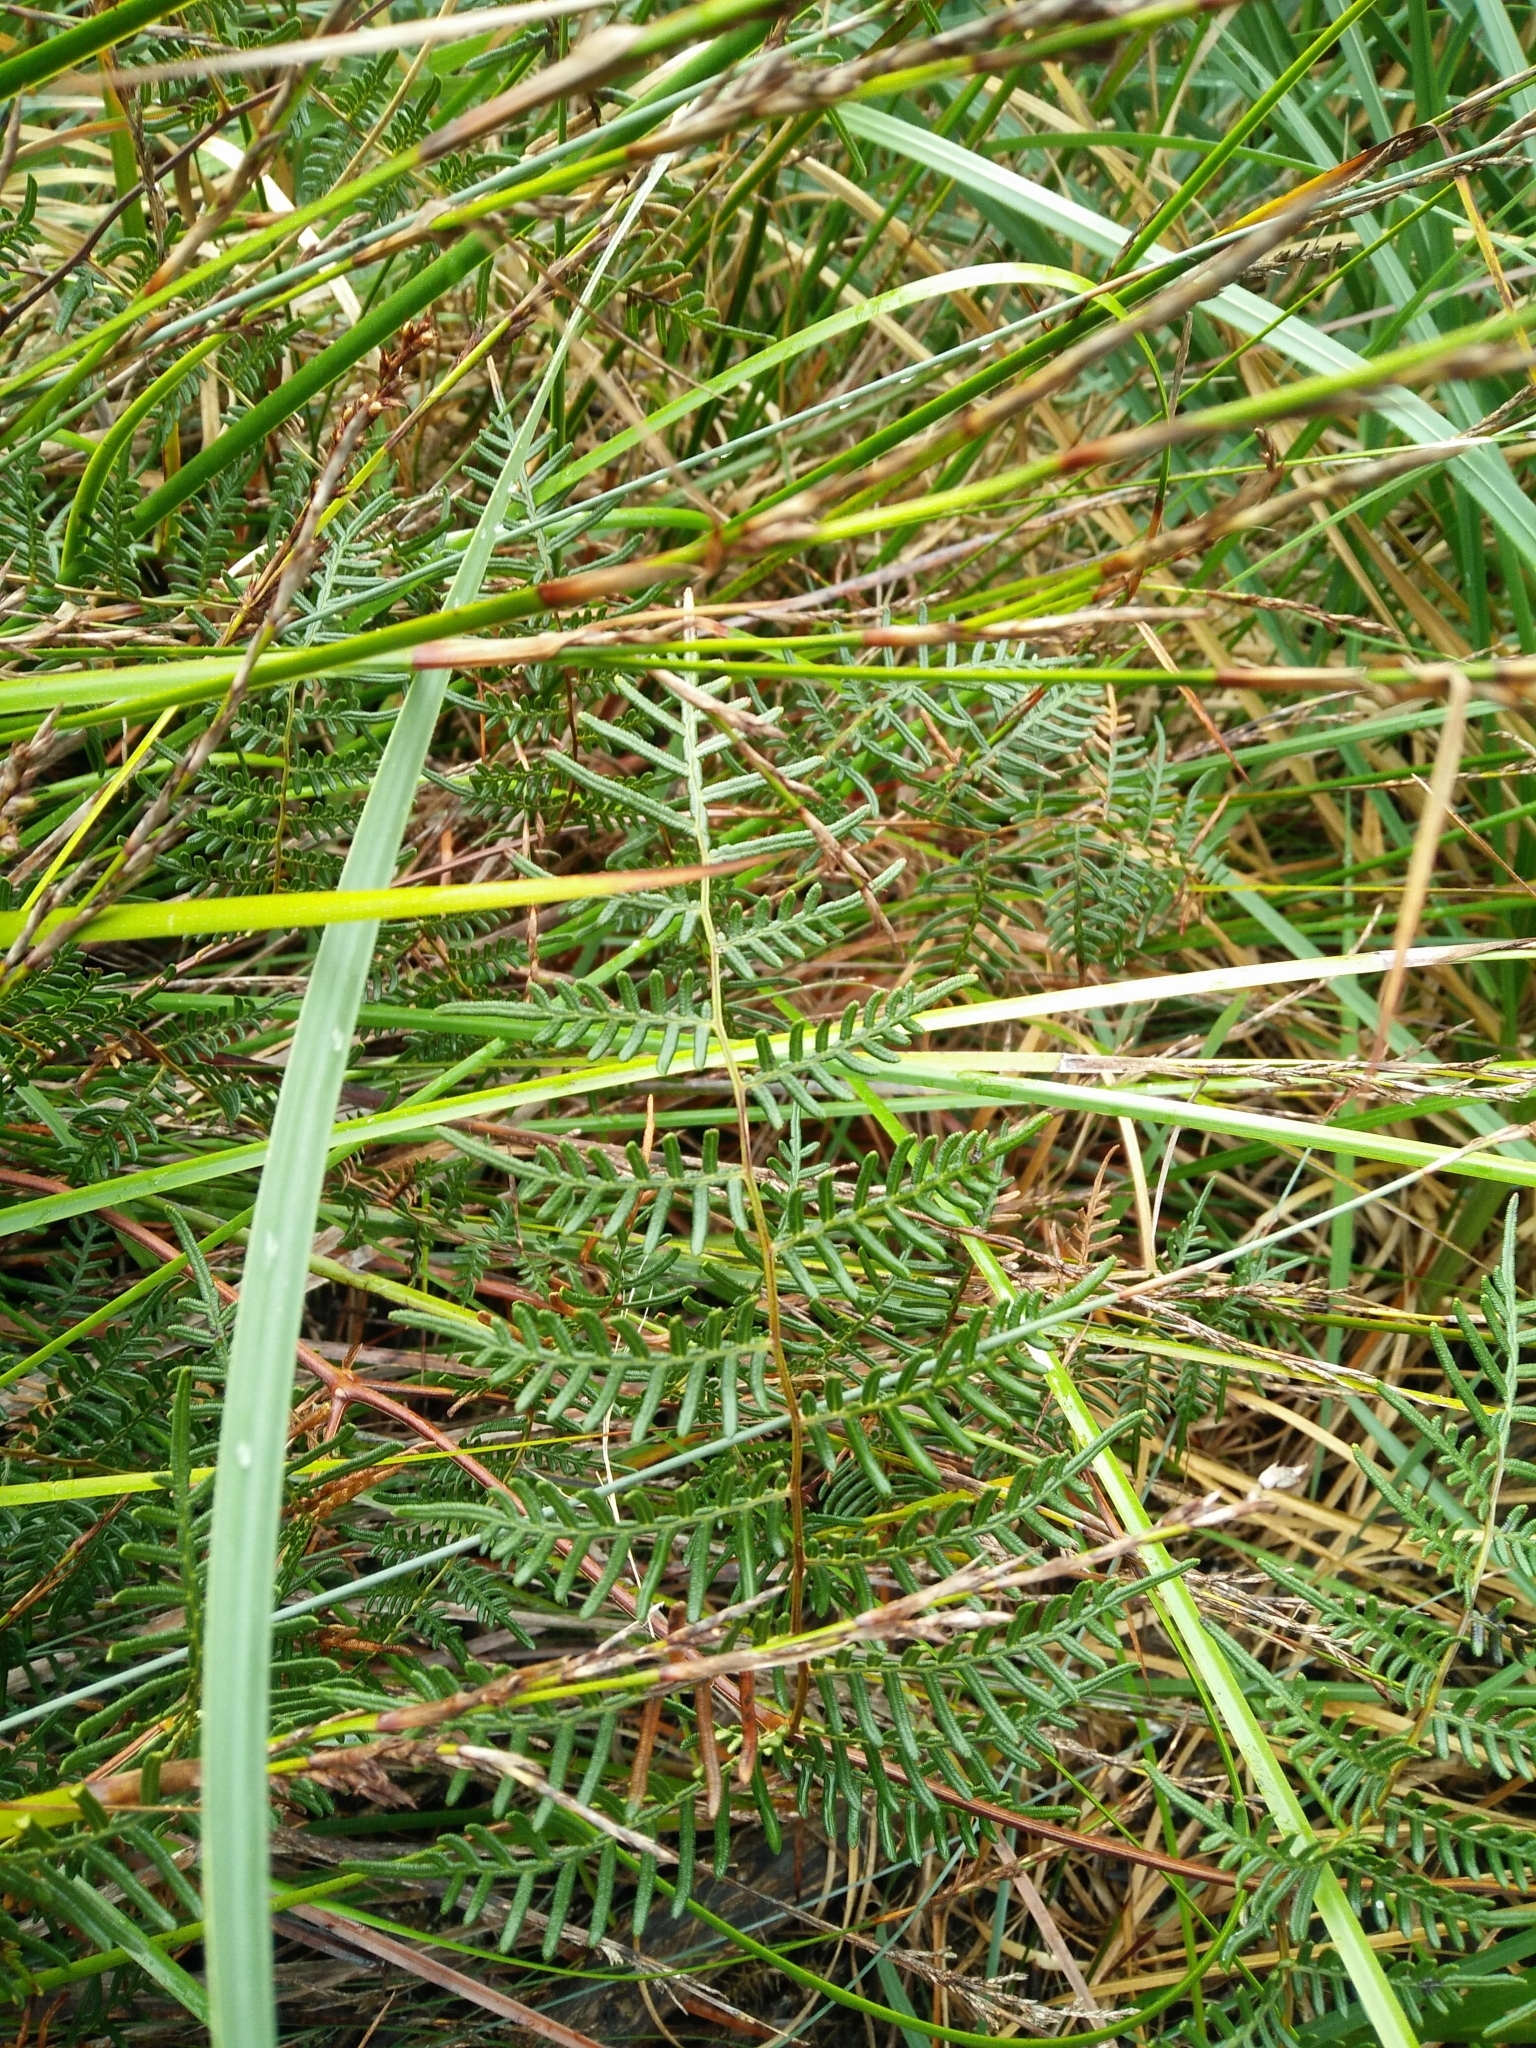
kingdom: Plantae
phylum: Tracheophyta
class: Polypodiopsida
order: Polypodiales
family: Dennstaedtiaceae
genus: Pteridium
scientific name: Pteridium esculentum
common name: Bracken fern
